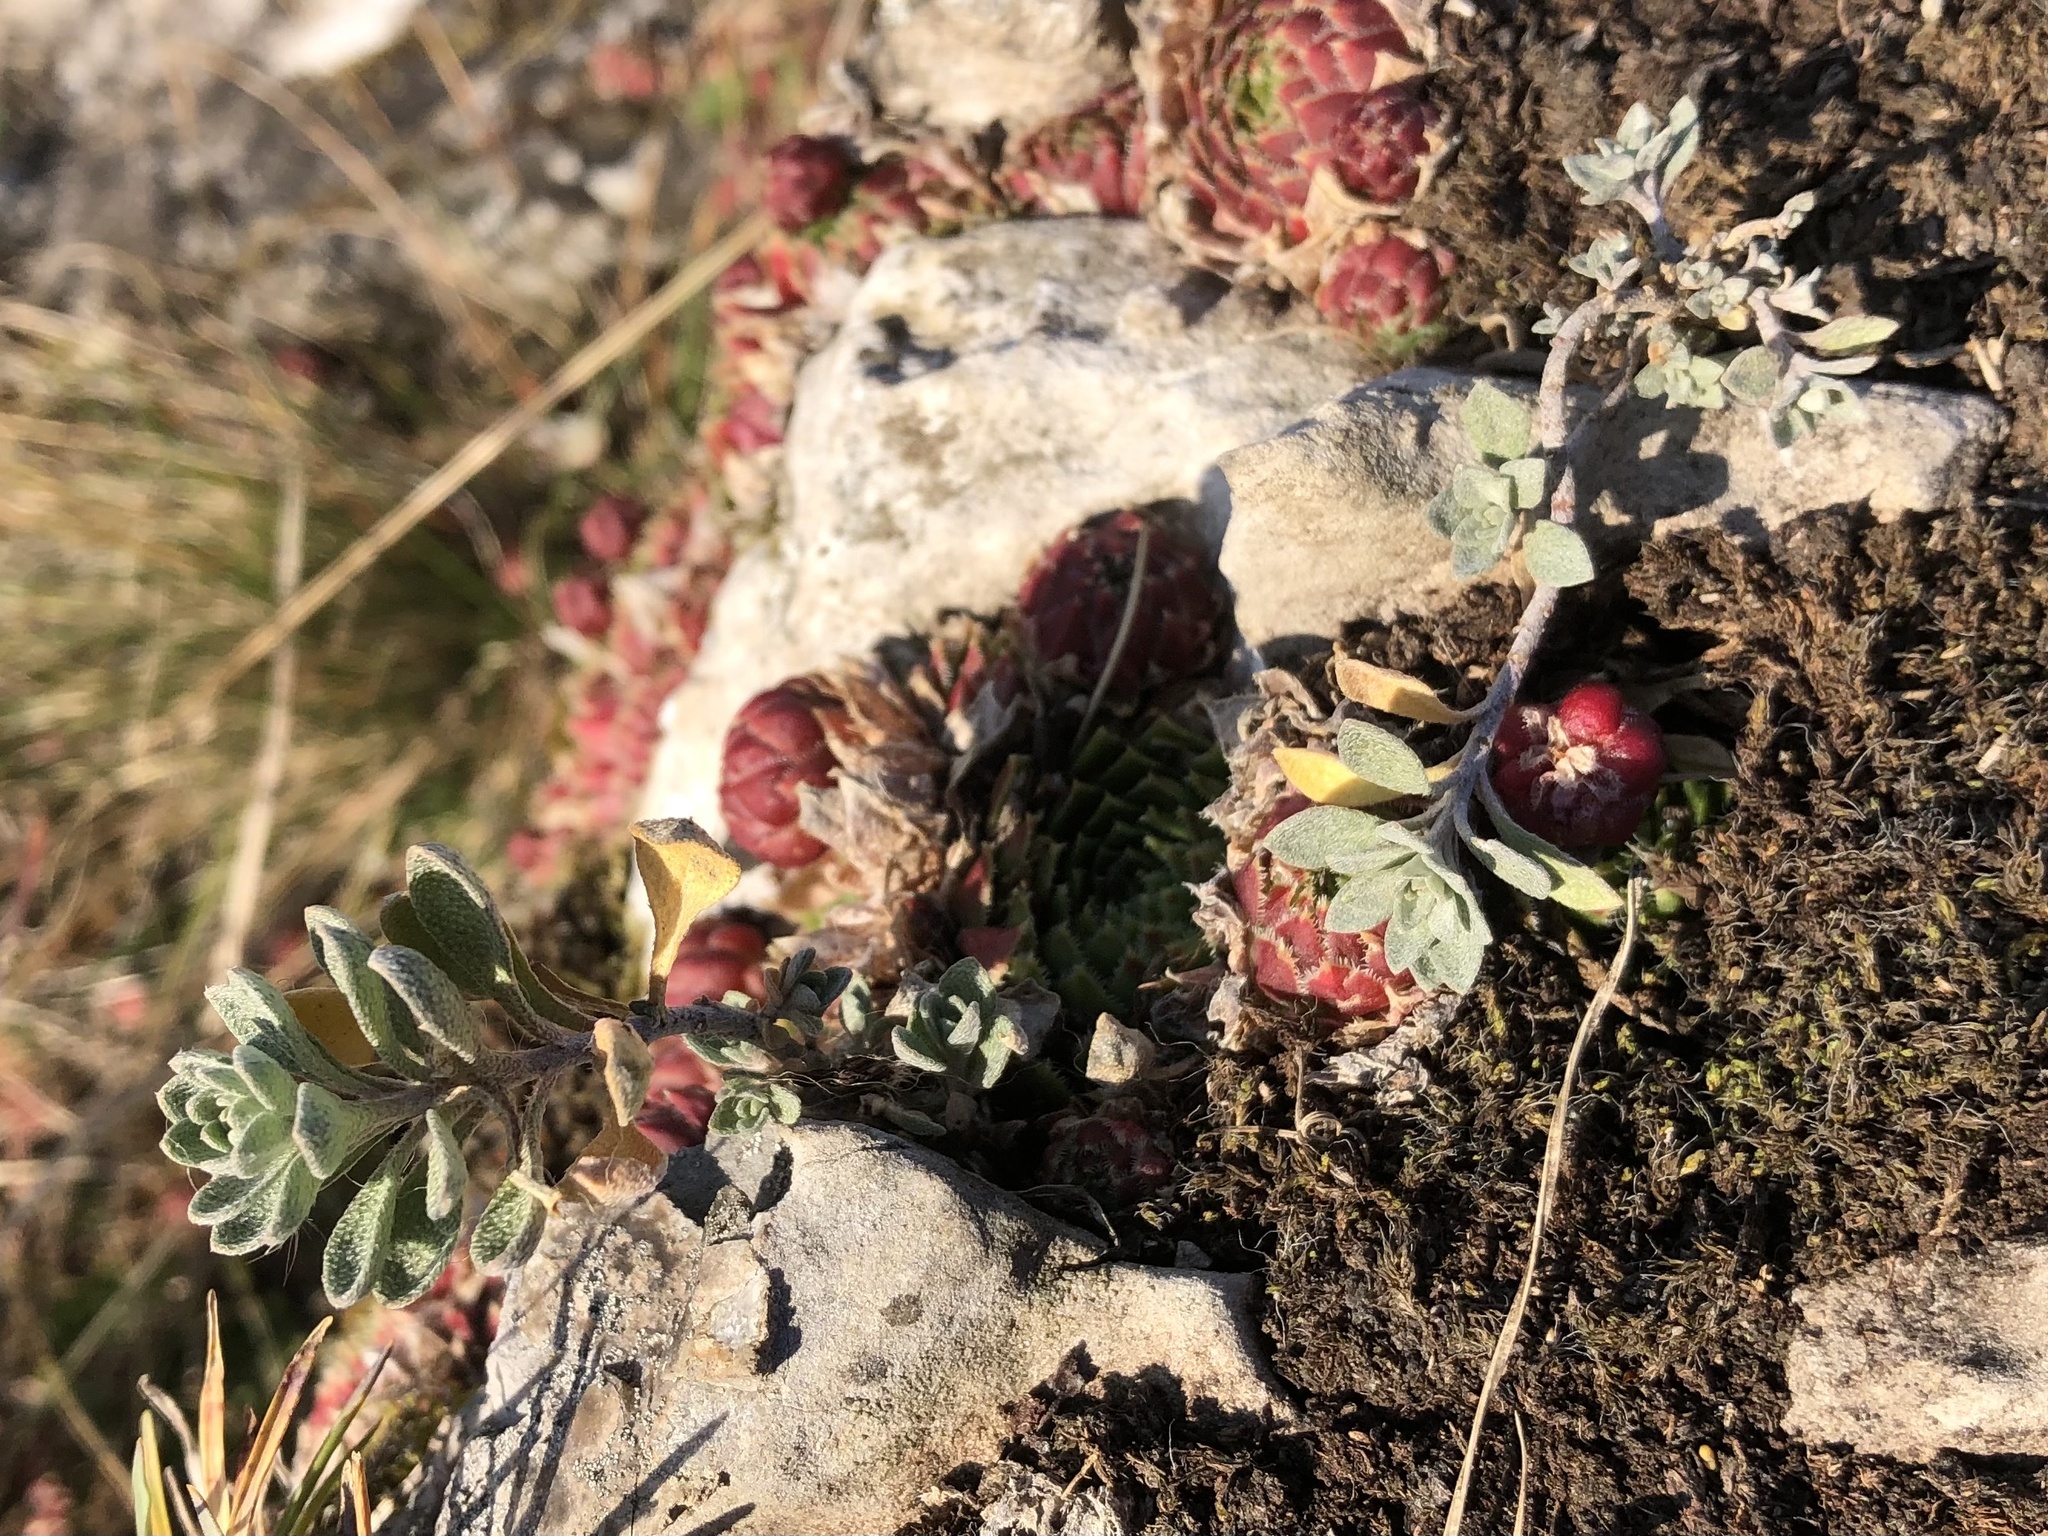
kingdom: Plantae
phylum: Tracheophyta
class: Magnoliopsida
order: Brassicales
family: Brassicaceae
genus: Alyssum
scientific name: Alyssum gmelinii
